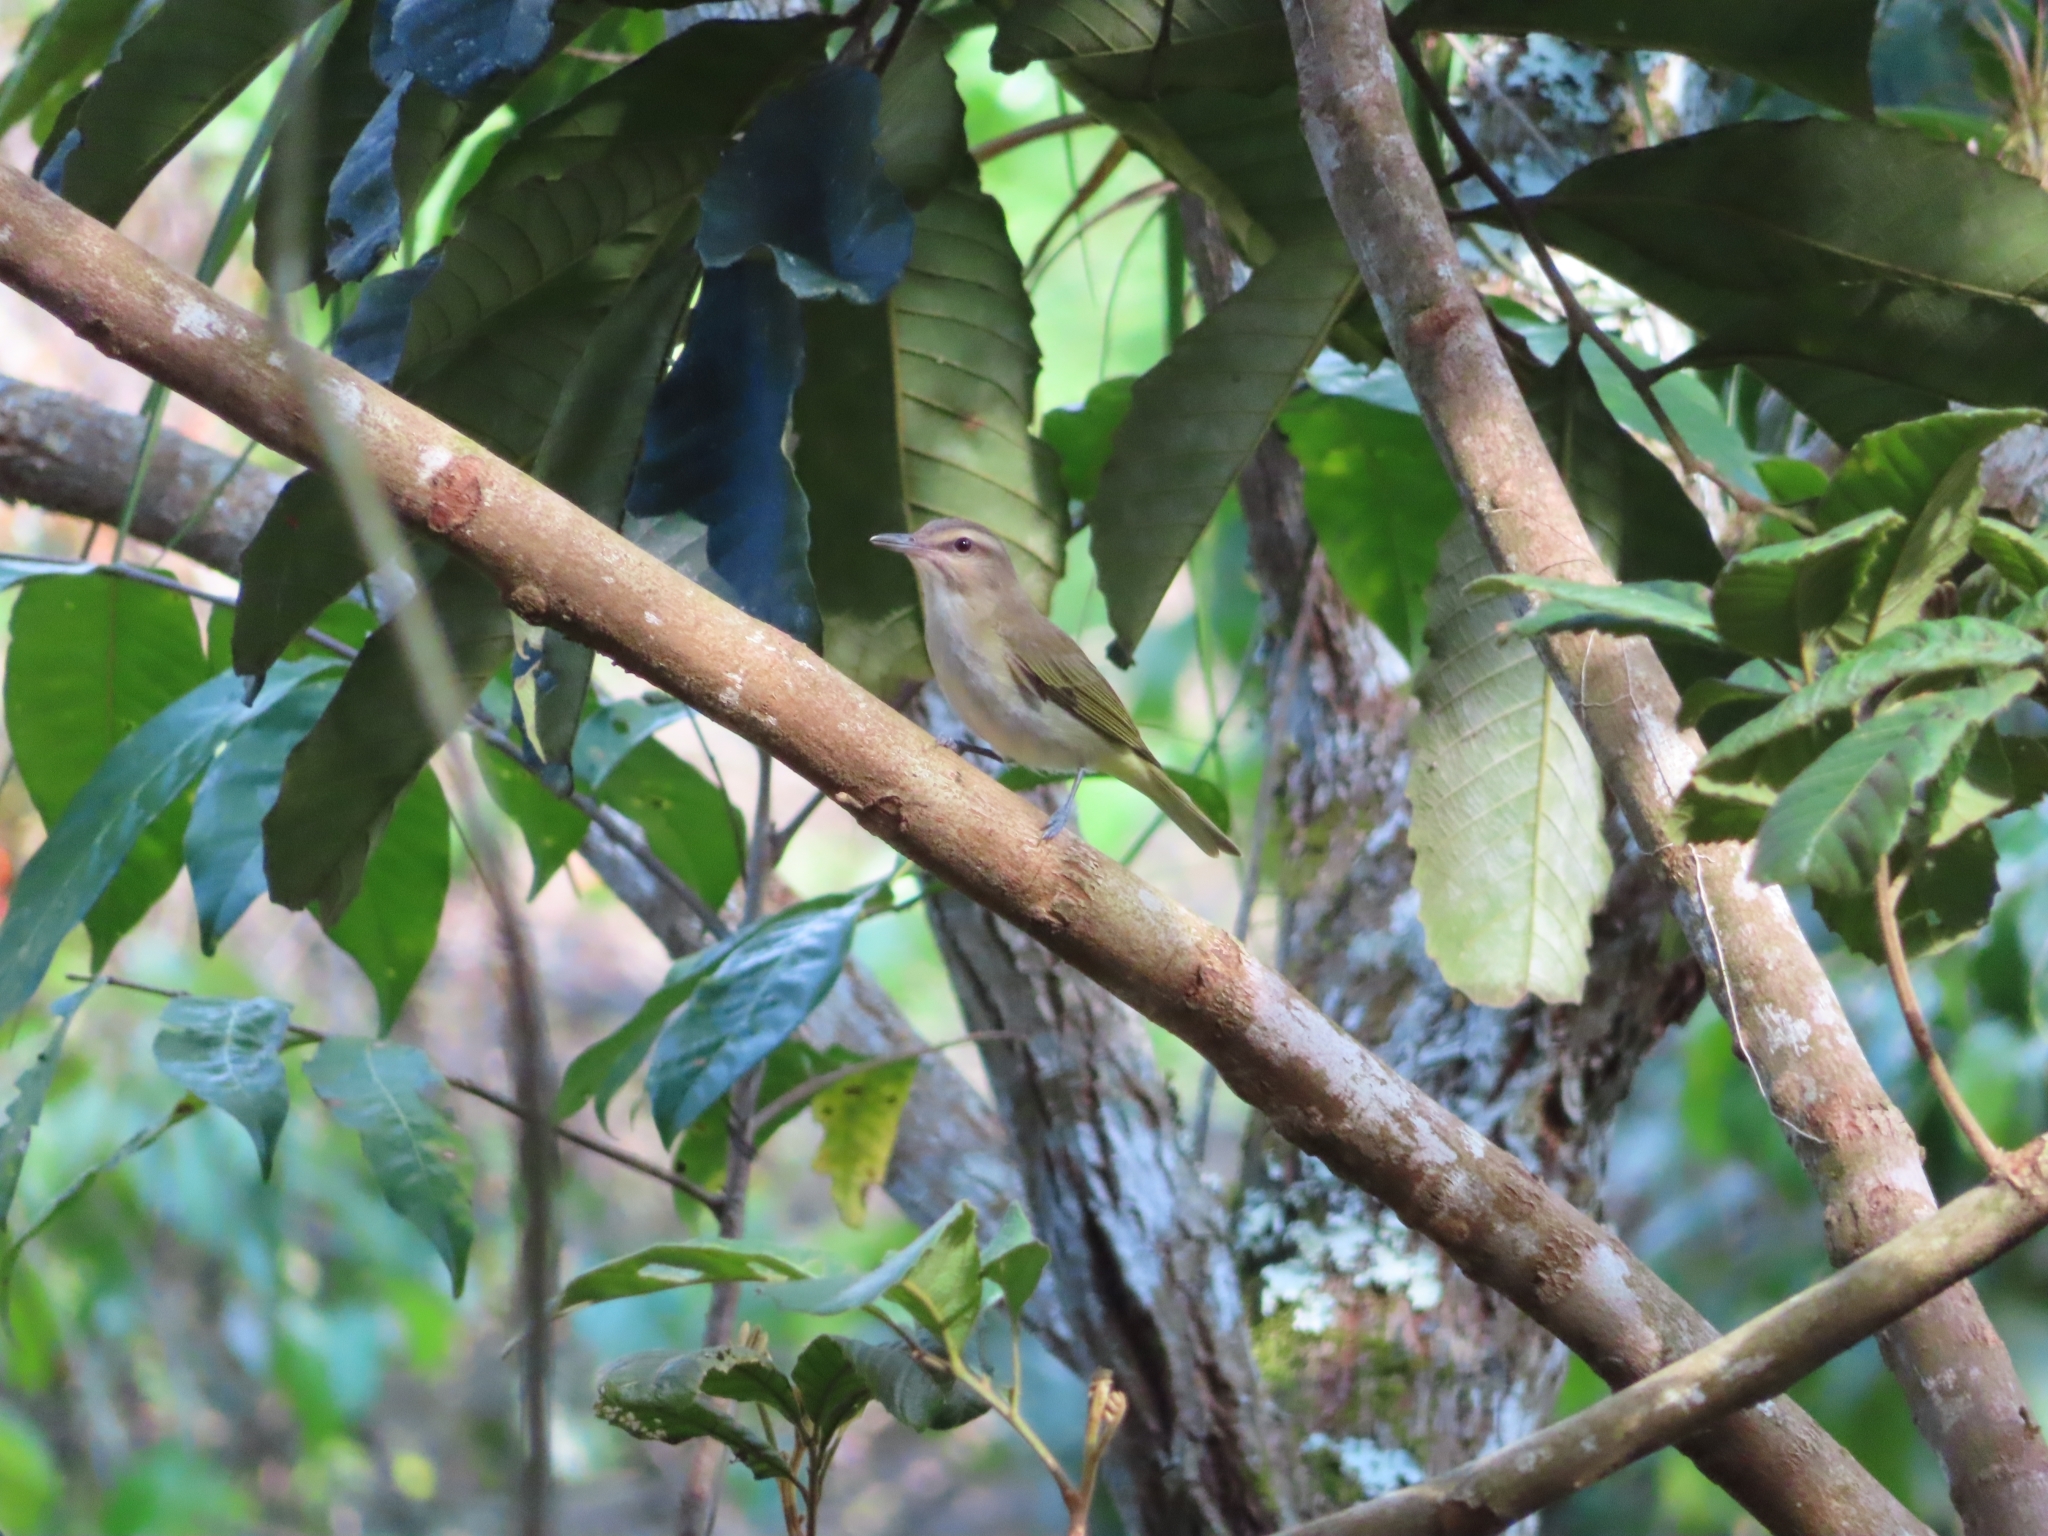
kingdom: Animalia
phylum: Chordata
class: Aves
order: Passeriformes
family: Vireonidae
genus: Vireo
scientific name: Vireo altiloquus
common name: Black-whiskered vireo
